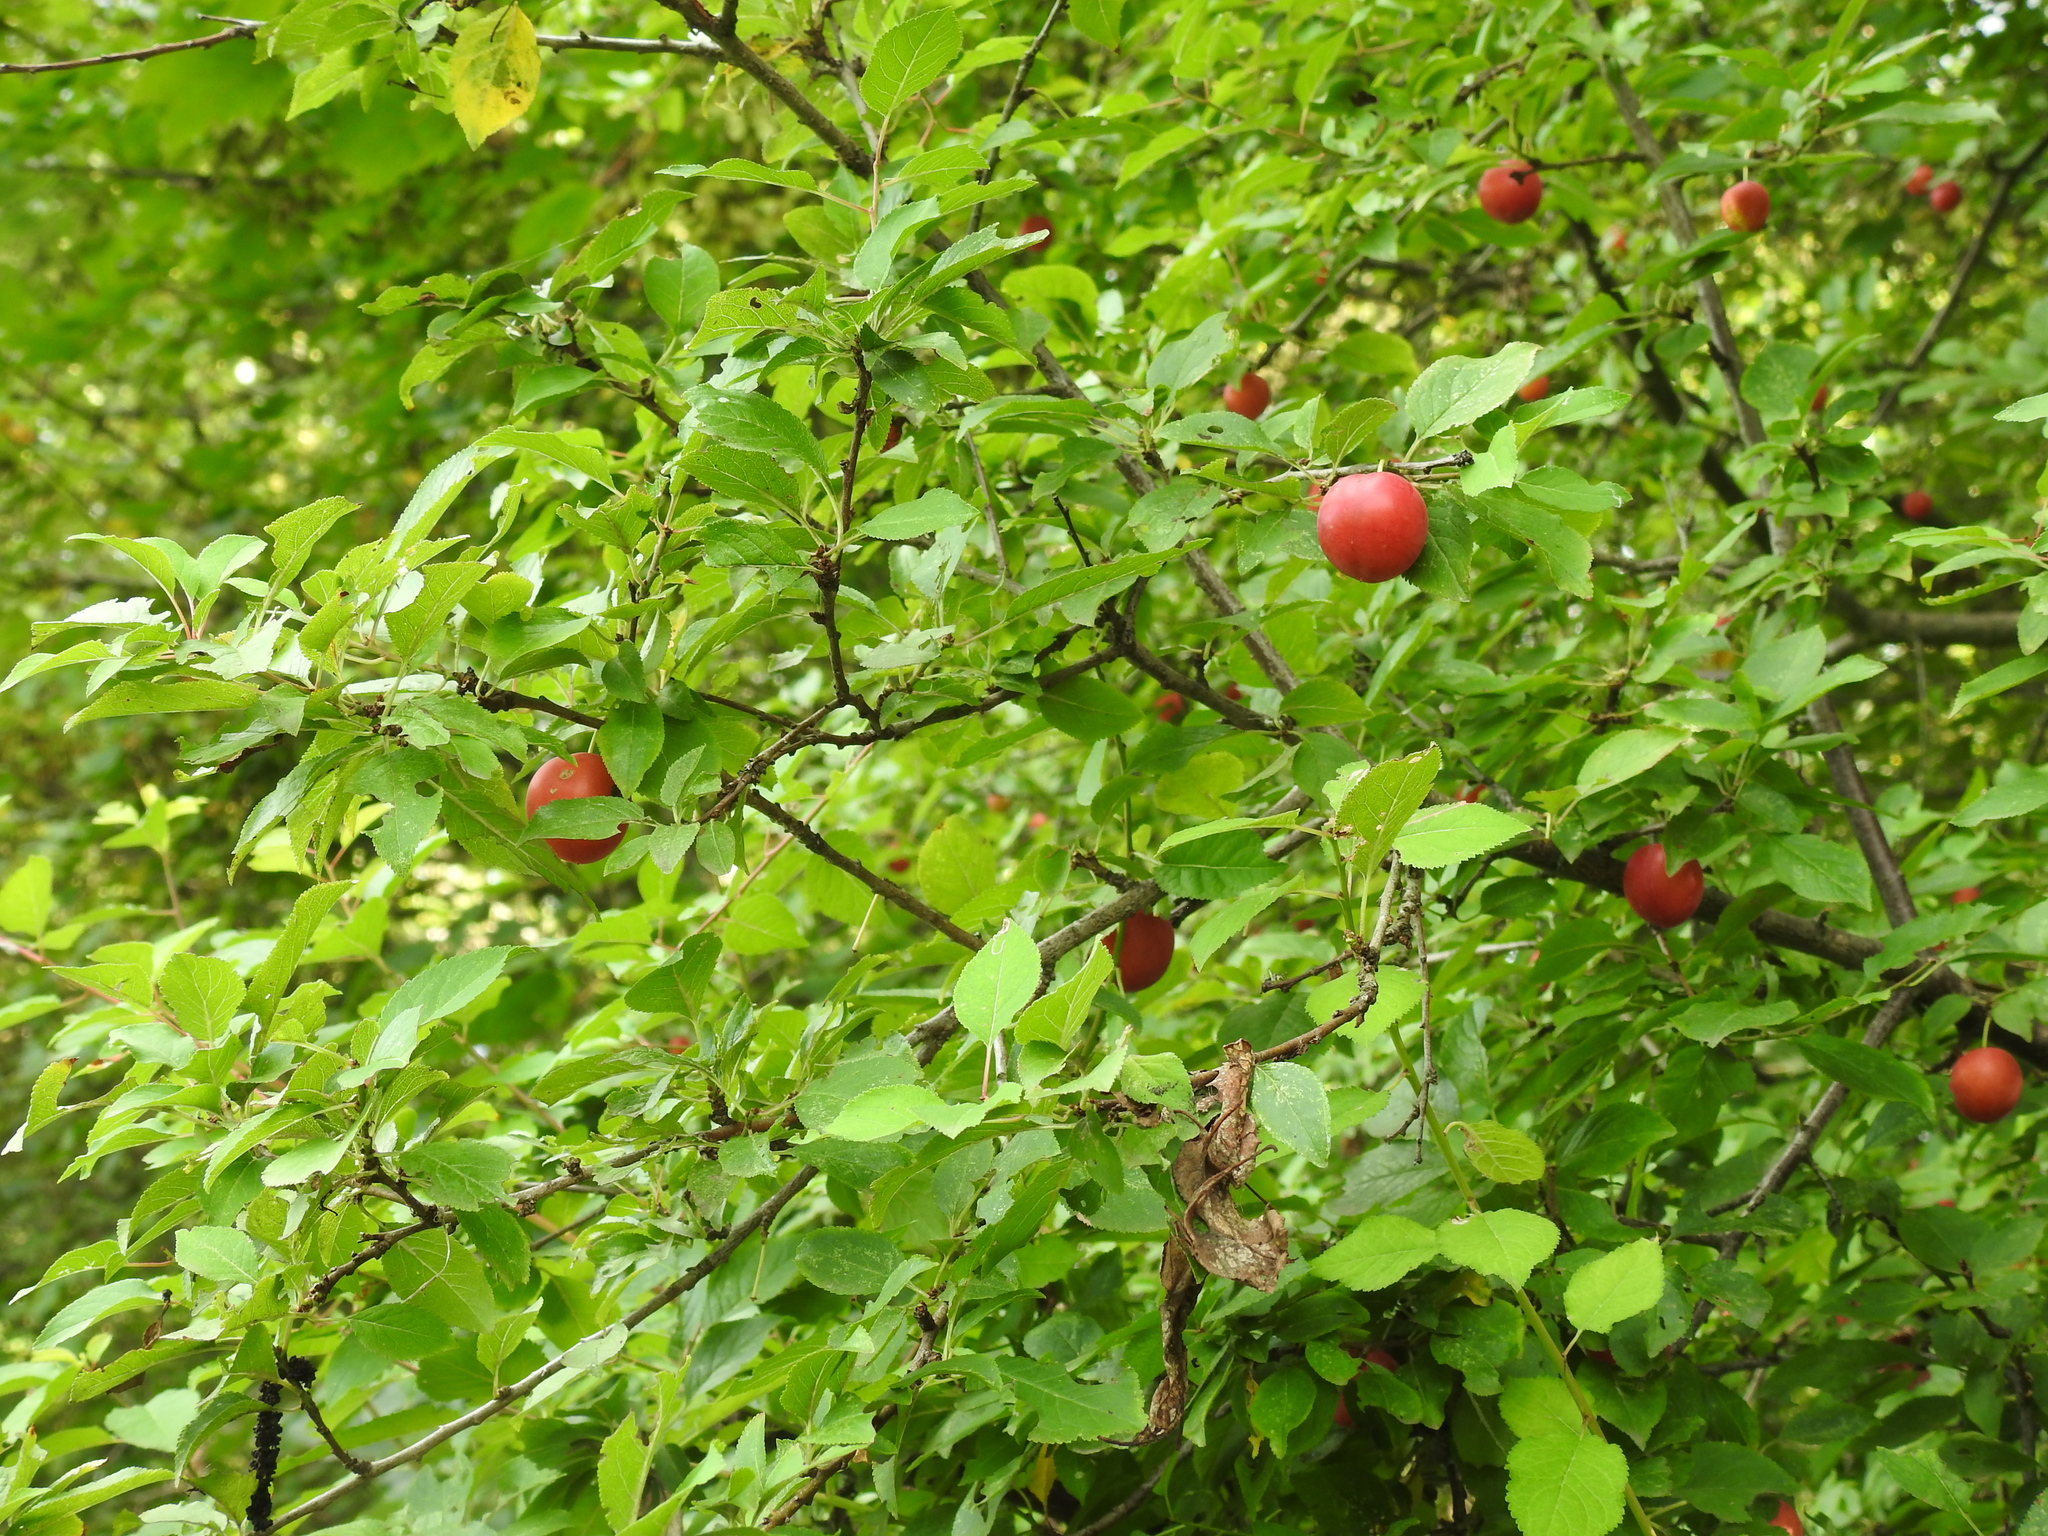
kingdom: Plantae
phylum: Tracheophyta
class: Magnoliopsida
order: Rosales
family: Rosaceae
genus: Prunus
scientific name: Prunus cerasifera
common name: Cherry plum
